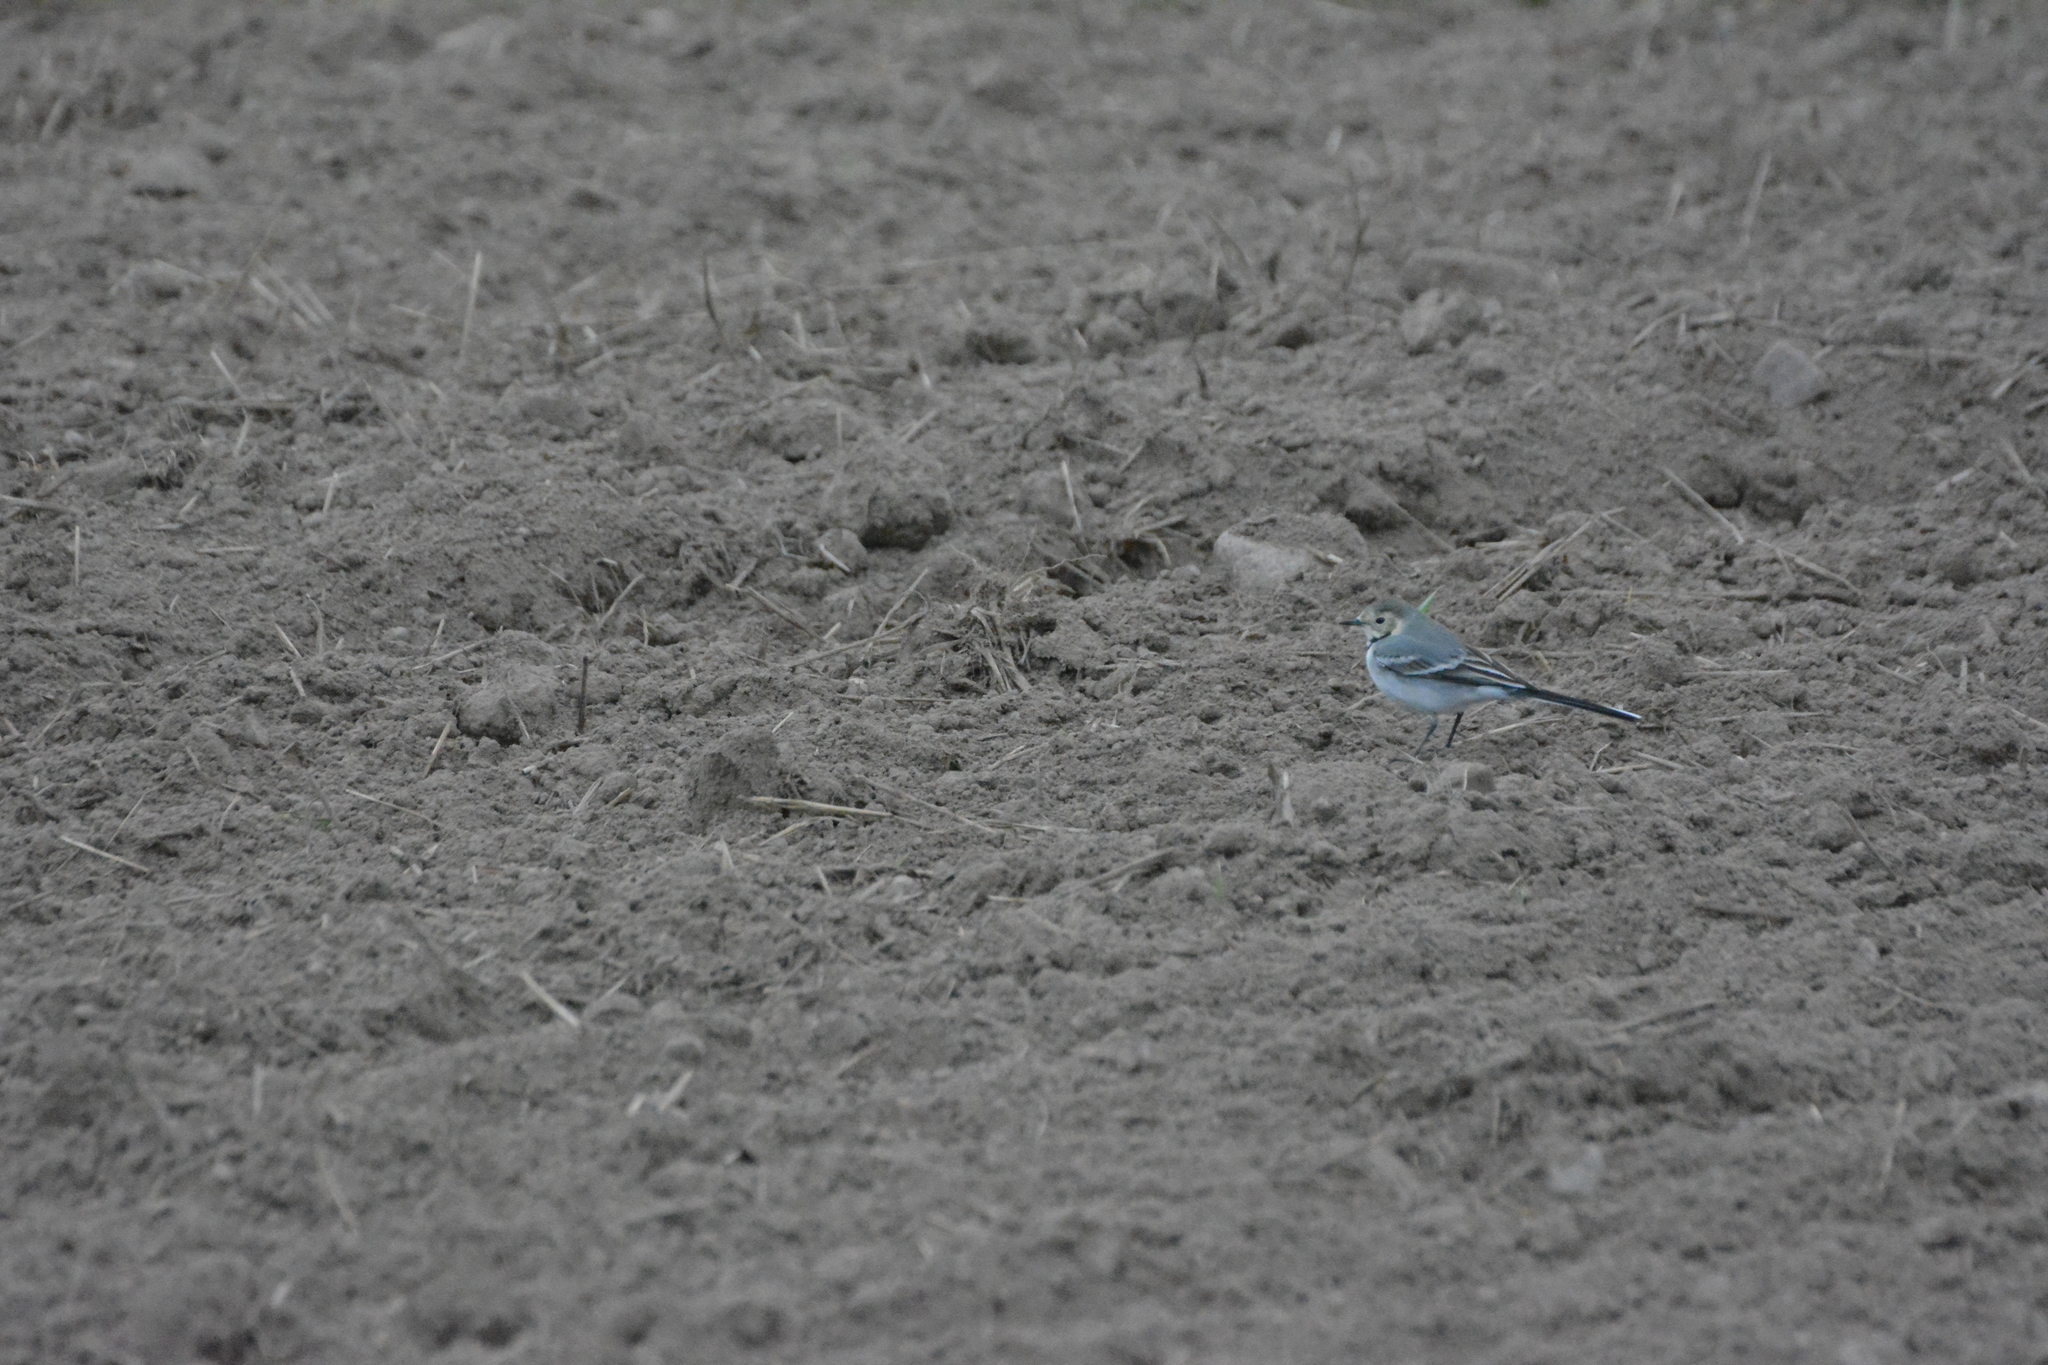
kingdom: Animalia
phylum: Chordata
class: Aves
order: Passeriformes
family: Motacillidae
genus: Motacilla
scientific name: Motacilla alba
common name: White wagtail
